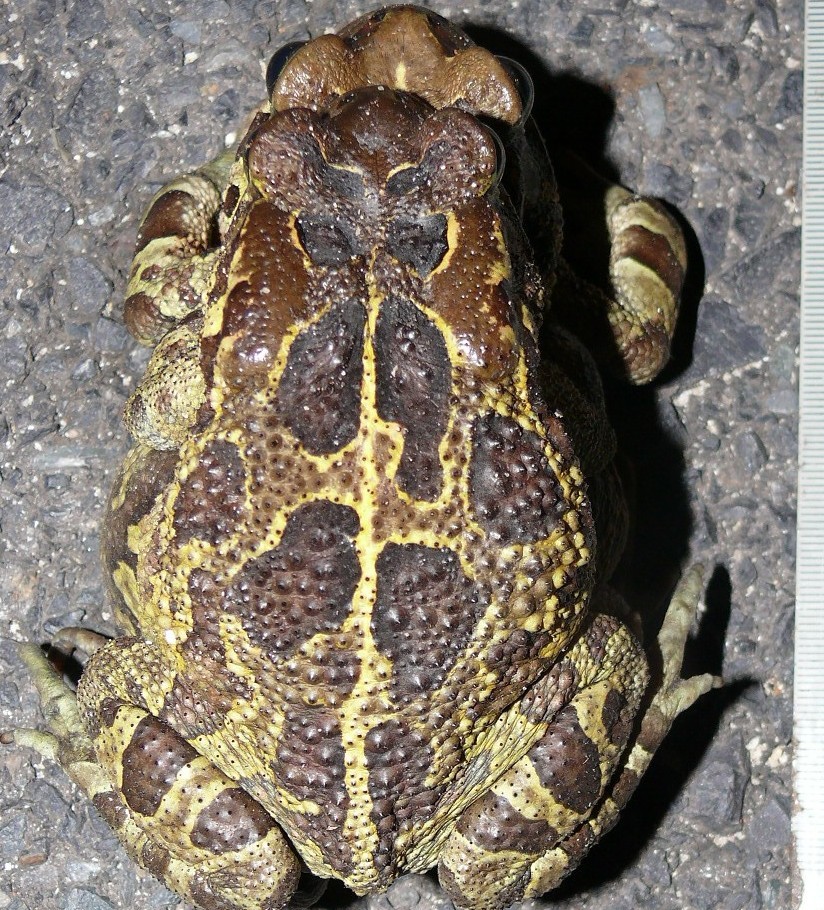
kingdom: Animalia
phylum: Chordata
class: Amphibia
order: Anura
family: Bufonidae
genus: Sclerophrys
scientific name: Sclerophrys pantherina
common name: Panther toad
